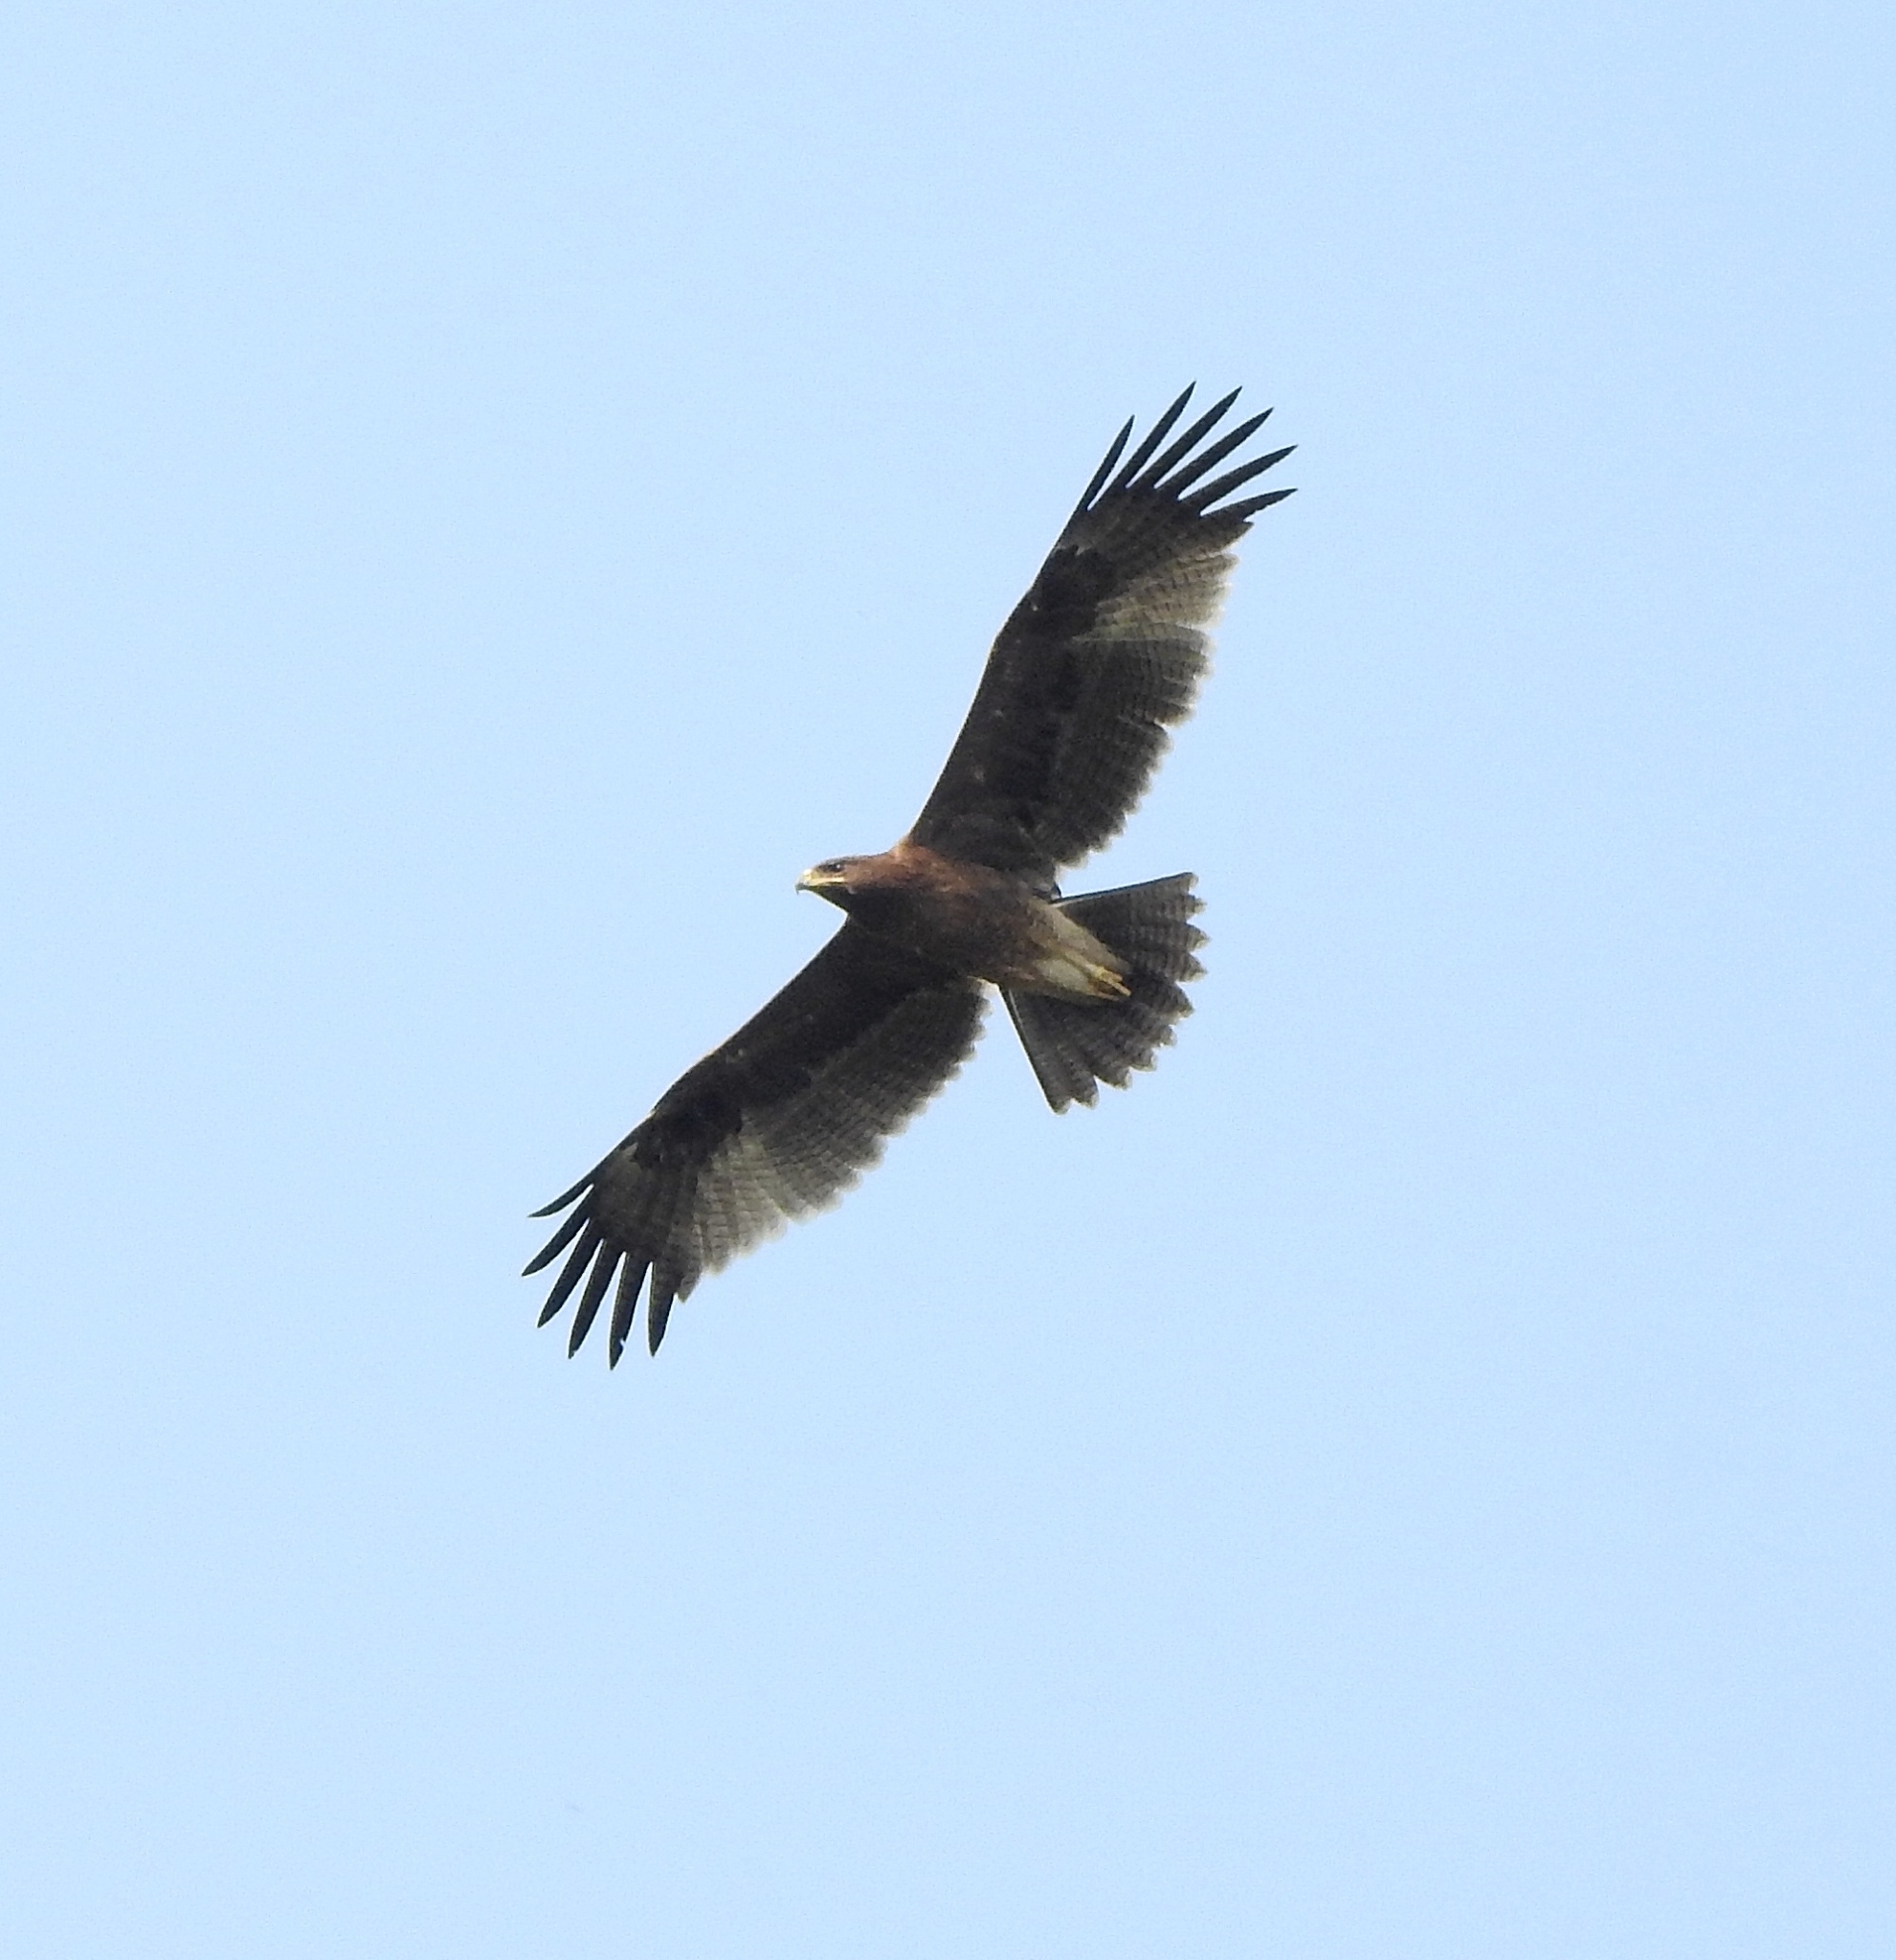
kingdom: Animalia
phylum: Chordata
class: Aves
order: Accipitriformes
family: Accipitridae
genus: Aquila
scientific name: Aquila hastata
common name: Indian spotted eagle
